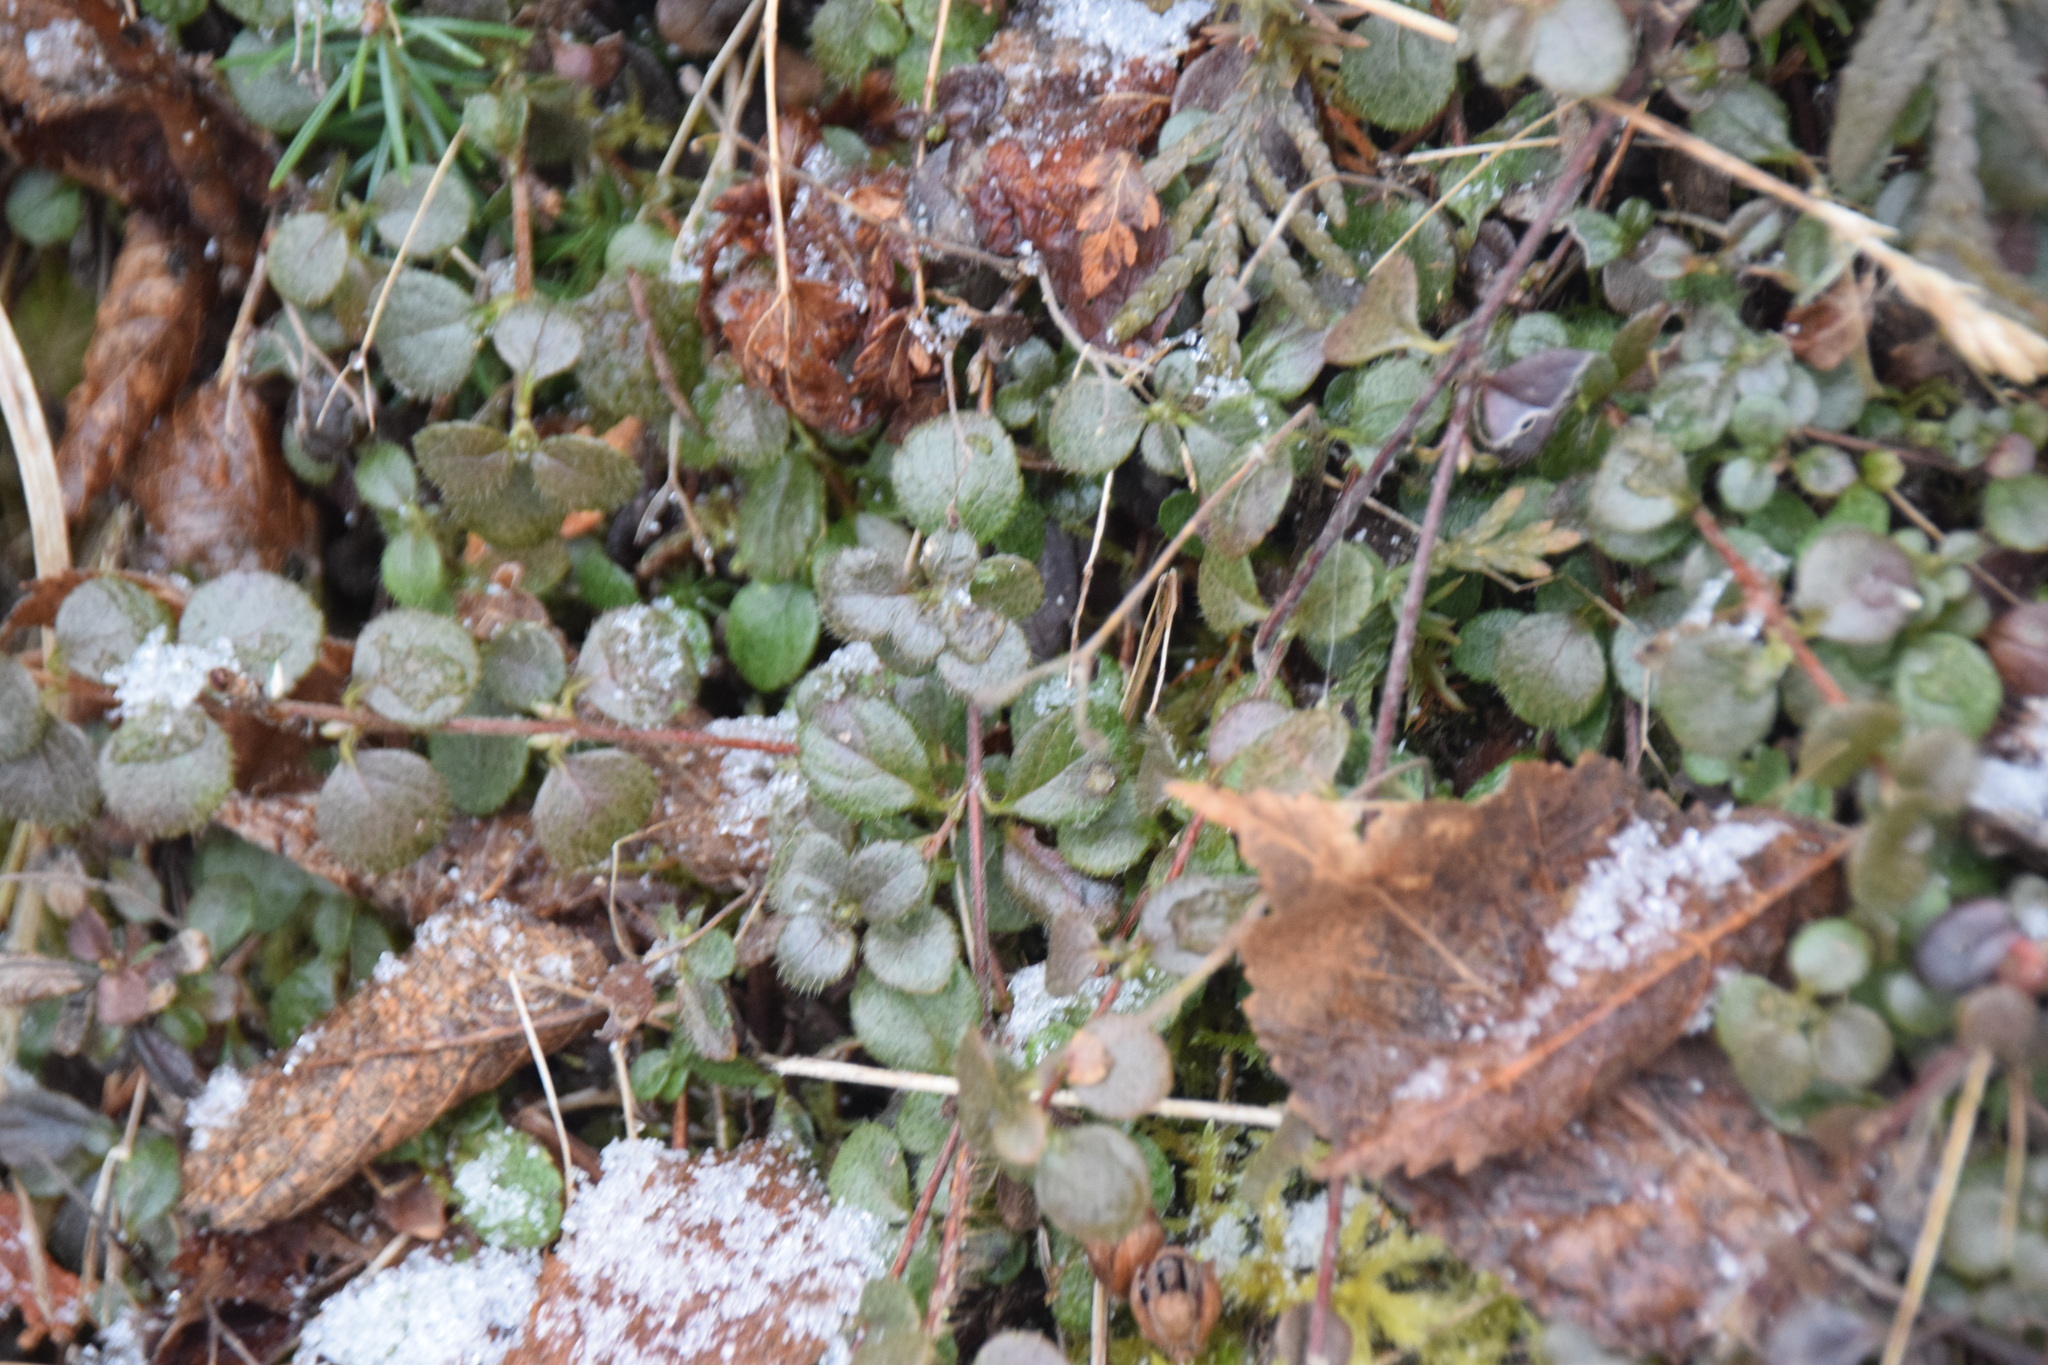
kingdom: Plantae
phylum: Tracheophyta
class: Magnoliopsida
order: Dipsacales
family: Caprifoliaceae
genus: Linnaea
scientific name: Linnaea borealis
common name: Twinflower
